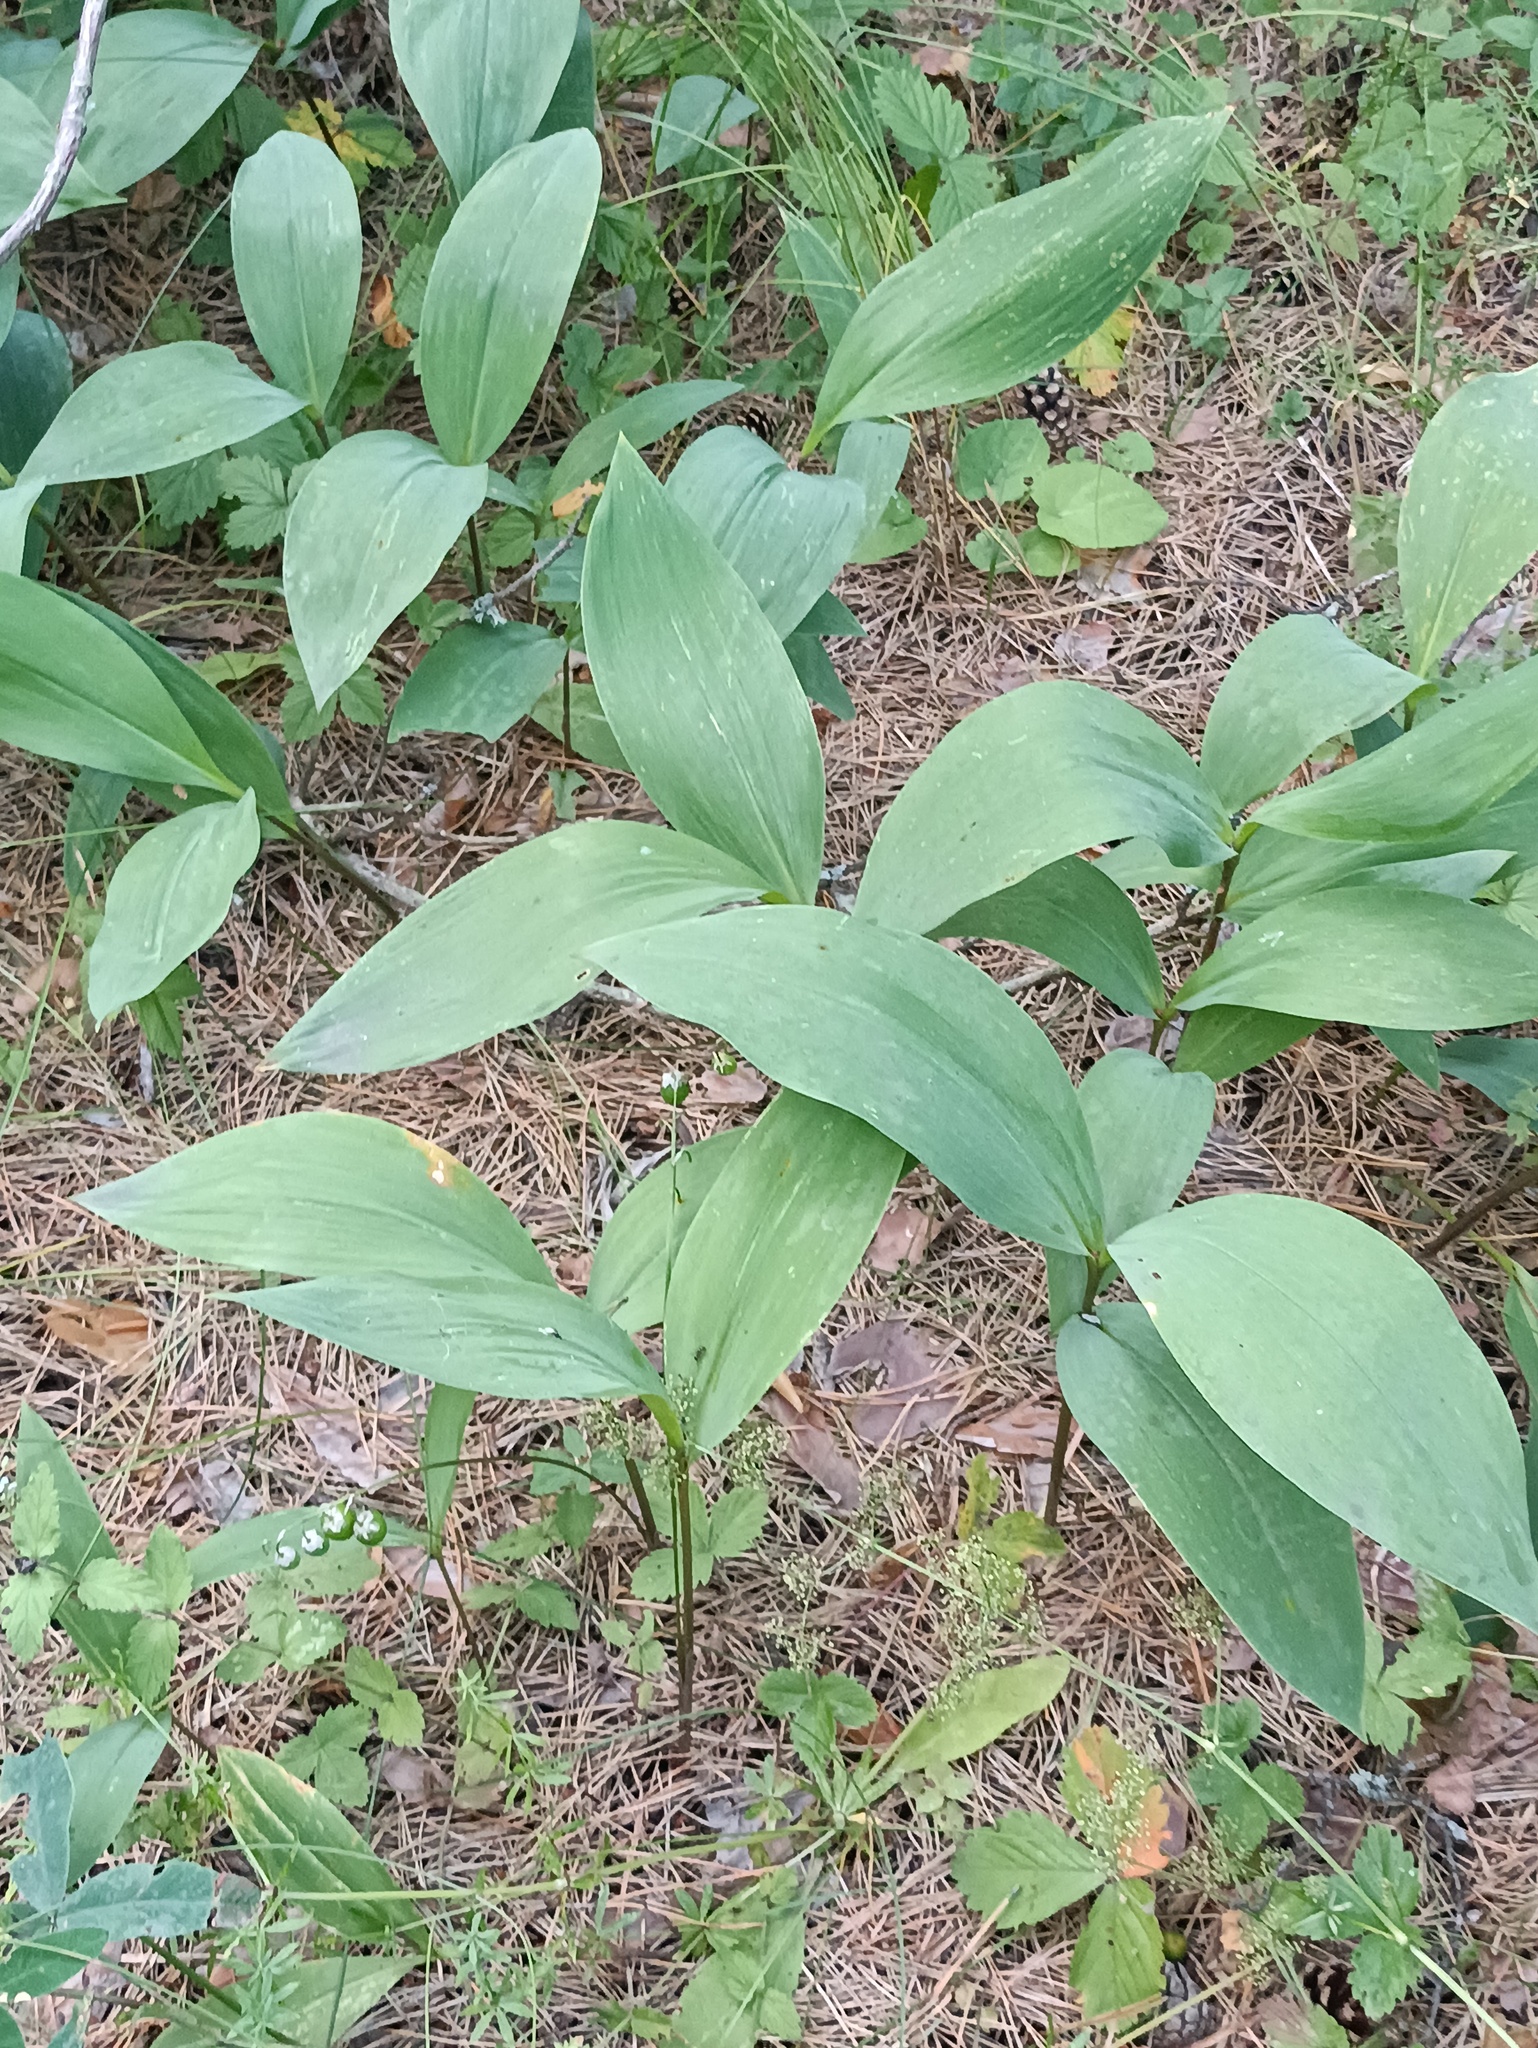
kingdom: Plantae
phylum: Tracheophyta
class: Liliopsida
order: Asparagales
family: Asparagaceae
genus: Convallaria
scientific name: Convallaria majalis
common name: Lily-of-the-valley
